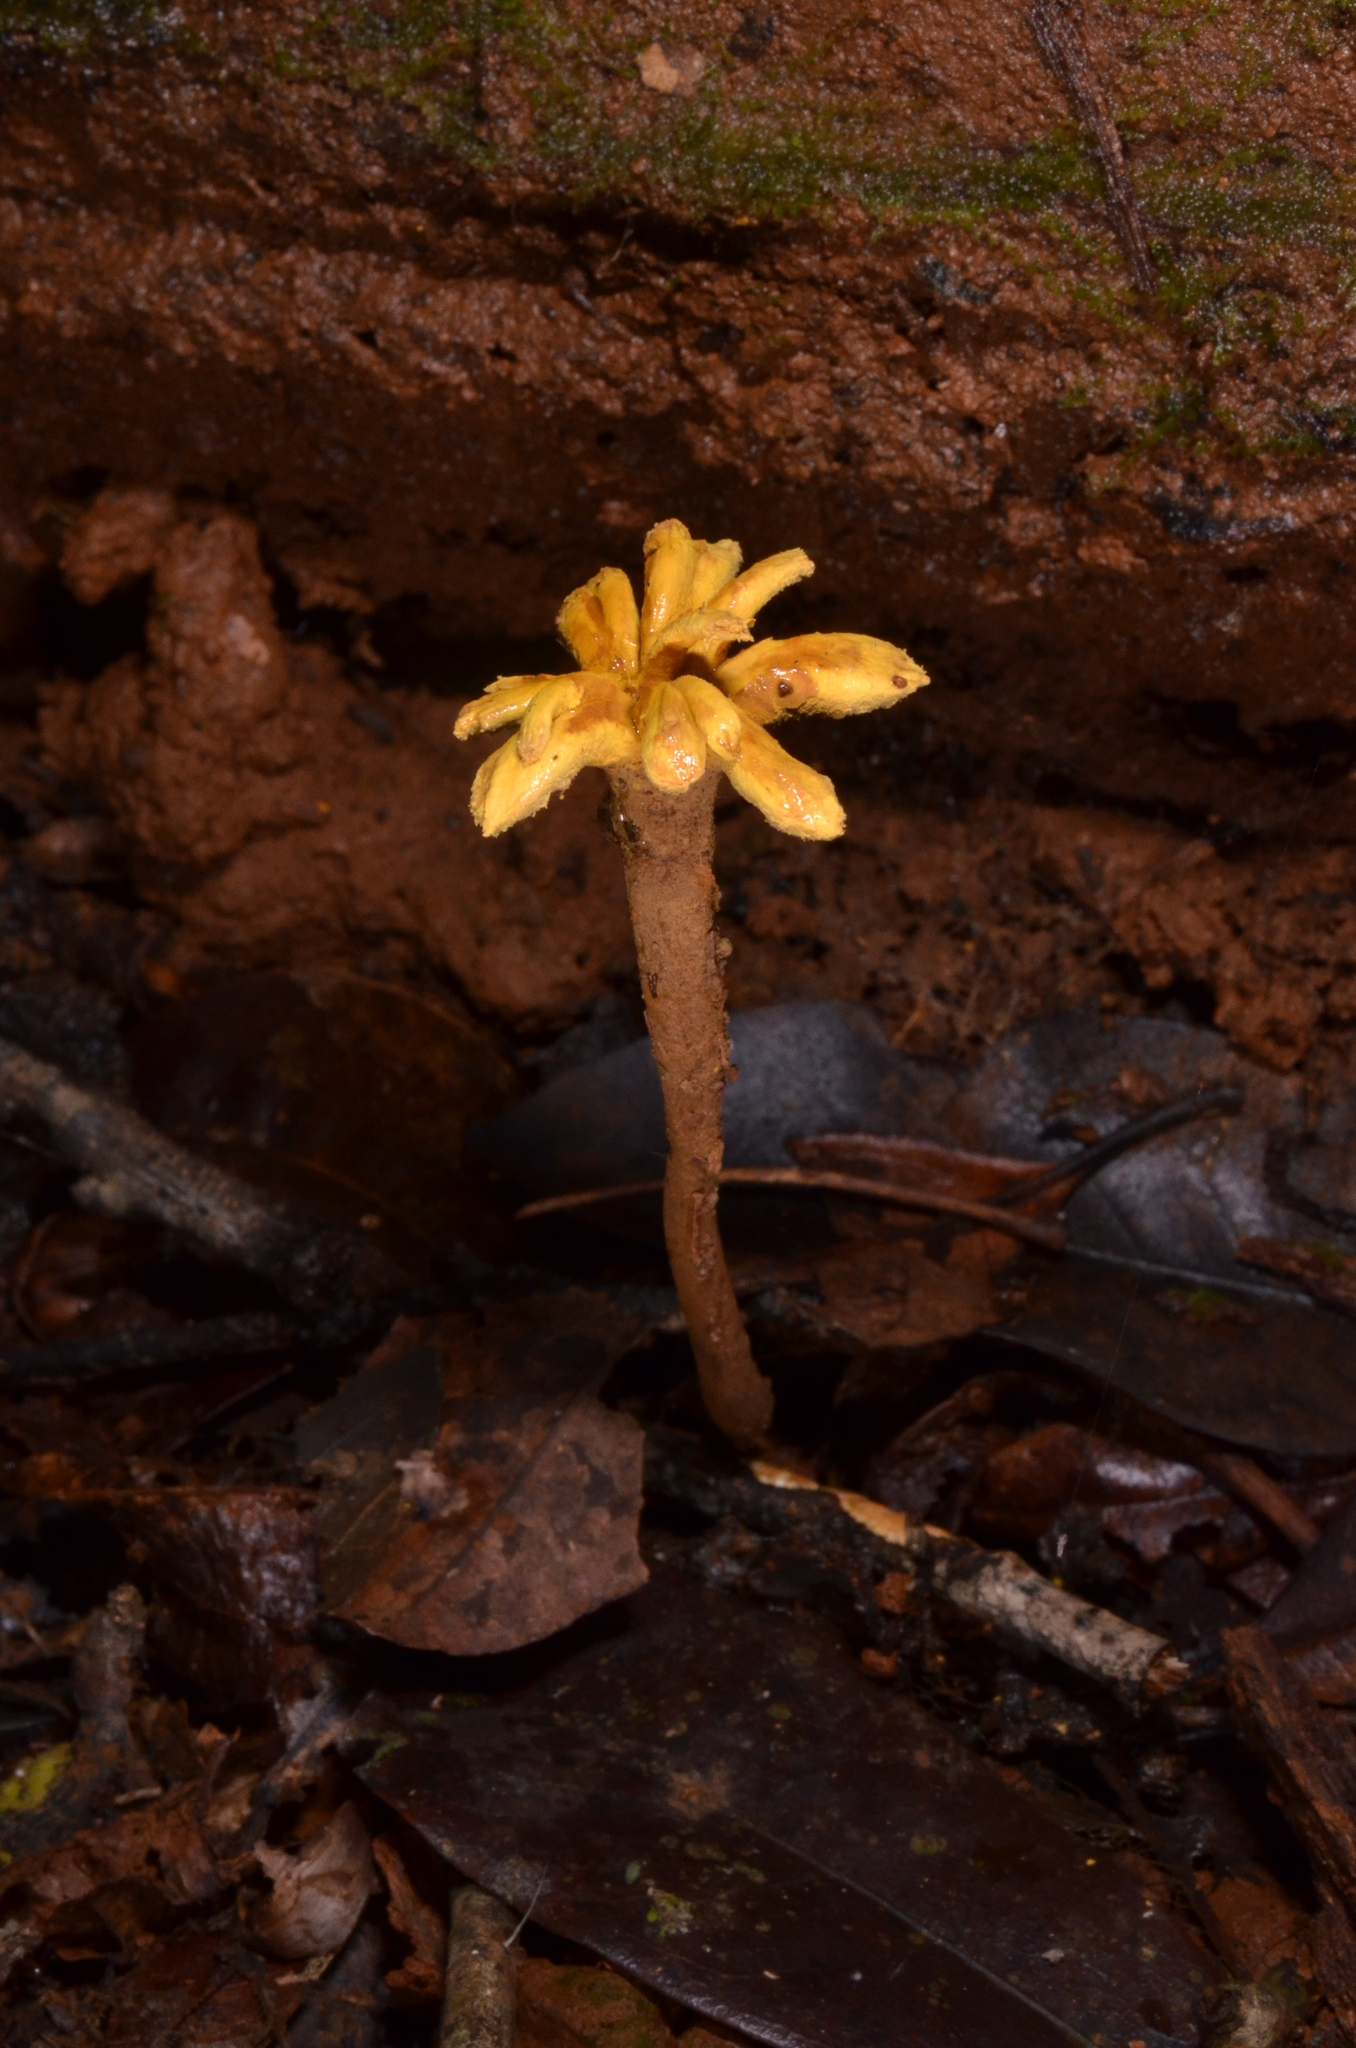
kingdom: Fungi
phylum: Ascomycota
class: Eurotiomycetes
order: Eurotiales
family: Aspergillaceae
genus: Dendrosphaera
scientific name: Dendrosphaera eberhardtii
